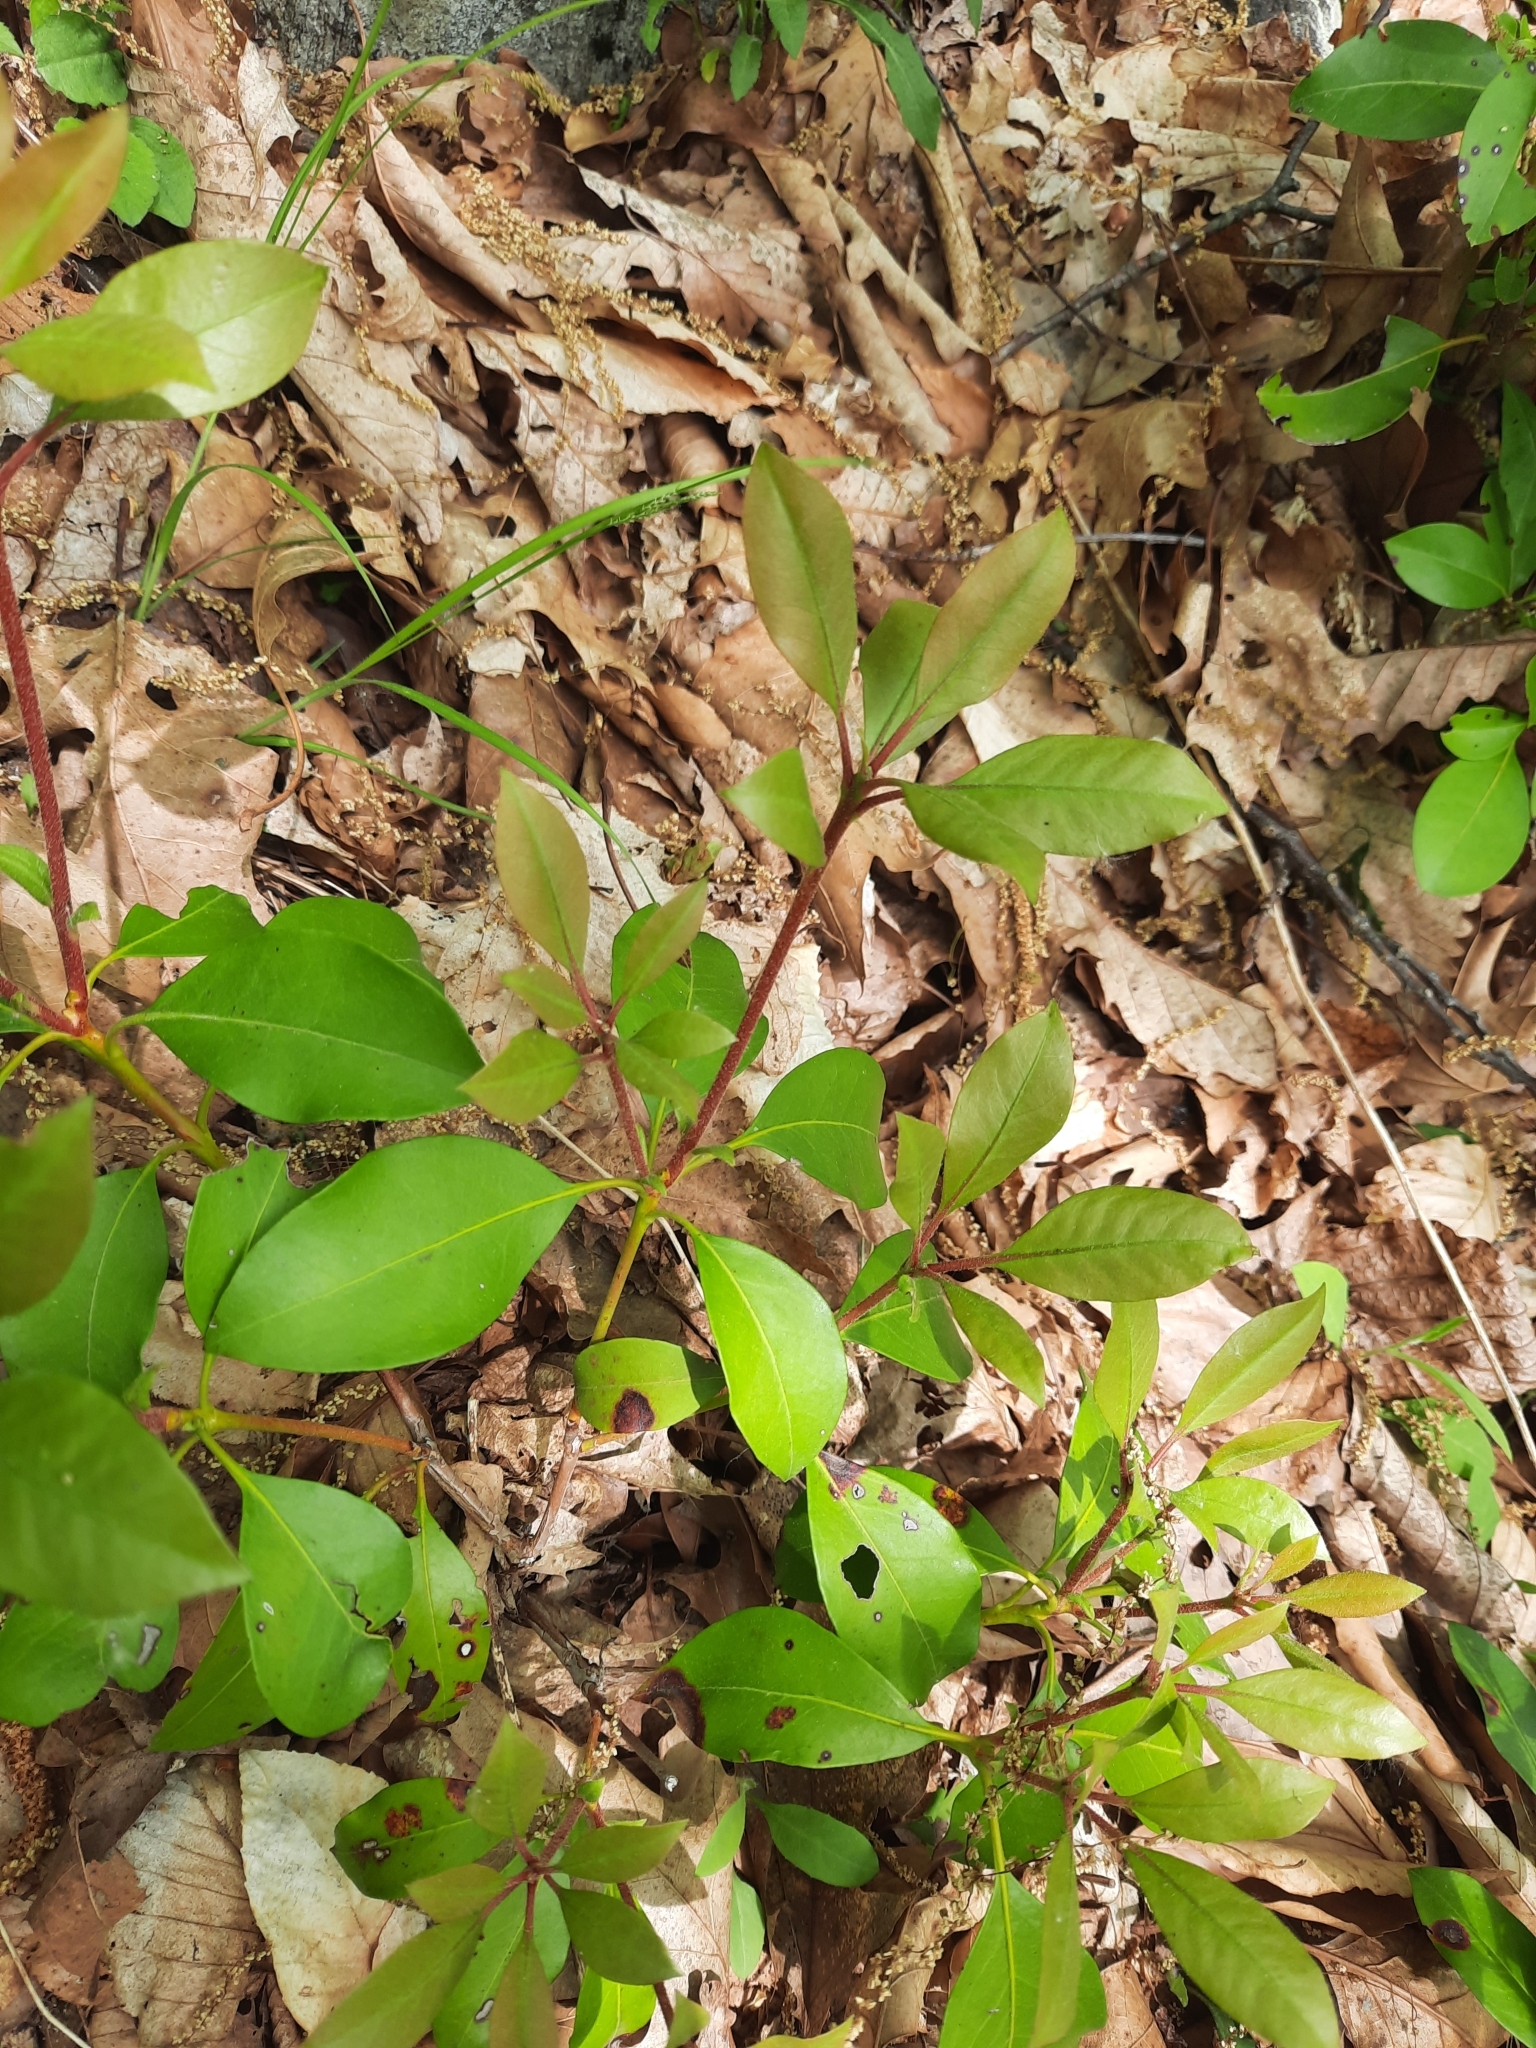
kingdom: Plantae
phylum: Tracheophyta
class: Magnoliopsida
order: Ericales
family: Ericaceae
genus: Kalmia
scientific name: Kalmia latifolia
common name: Mountain-laurel
